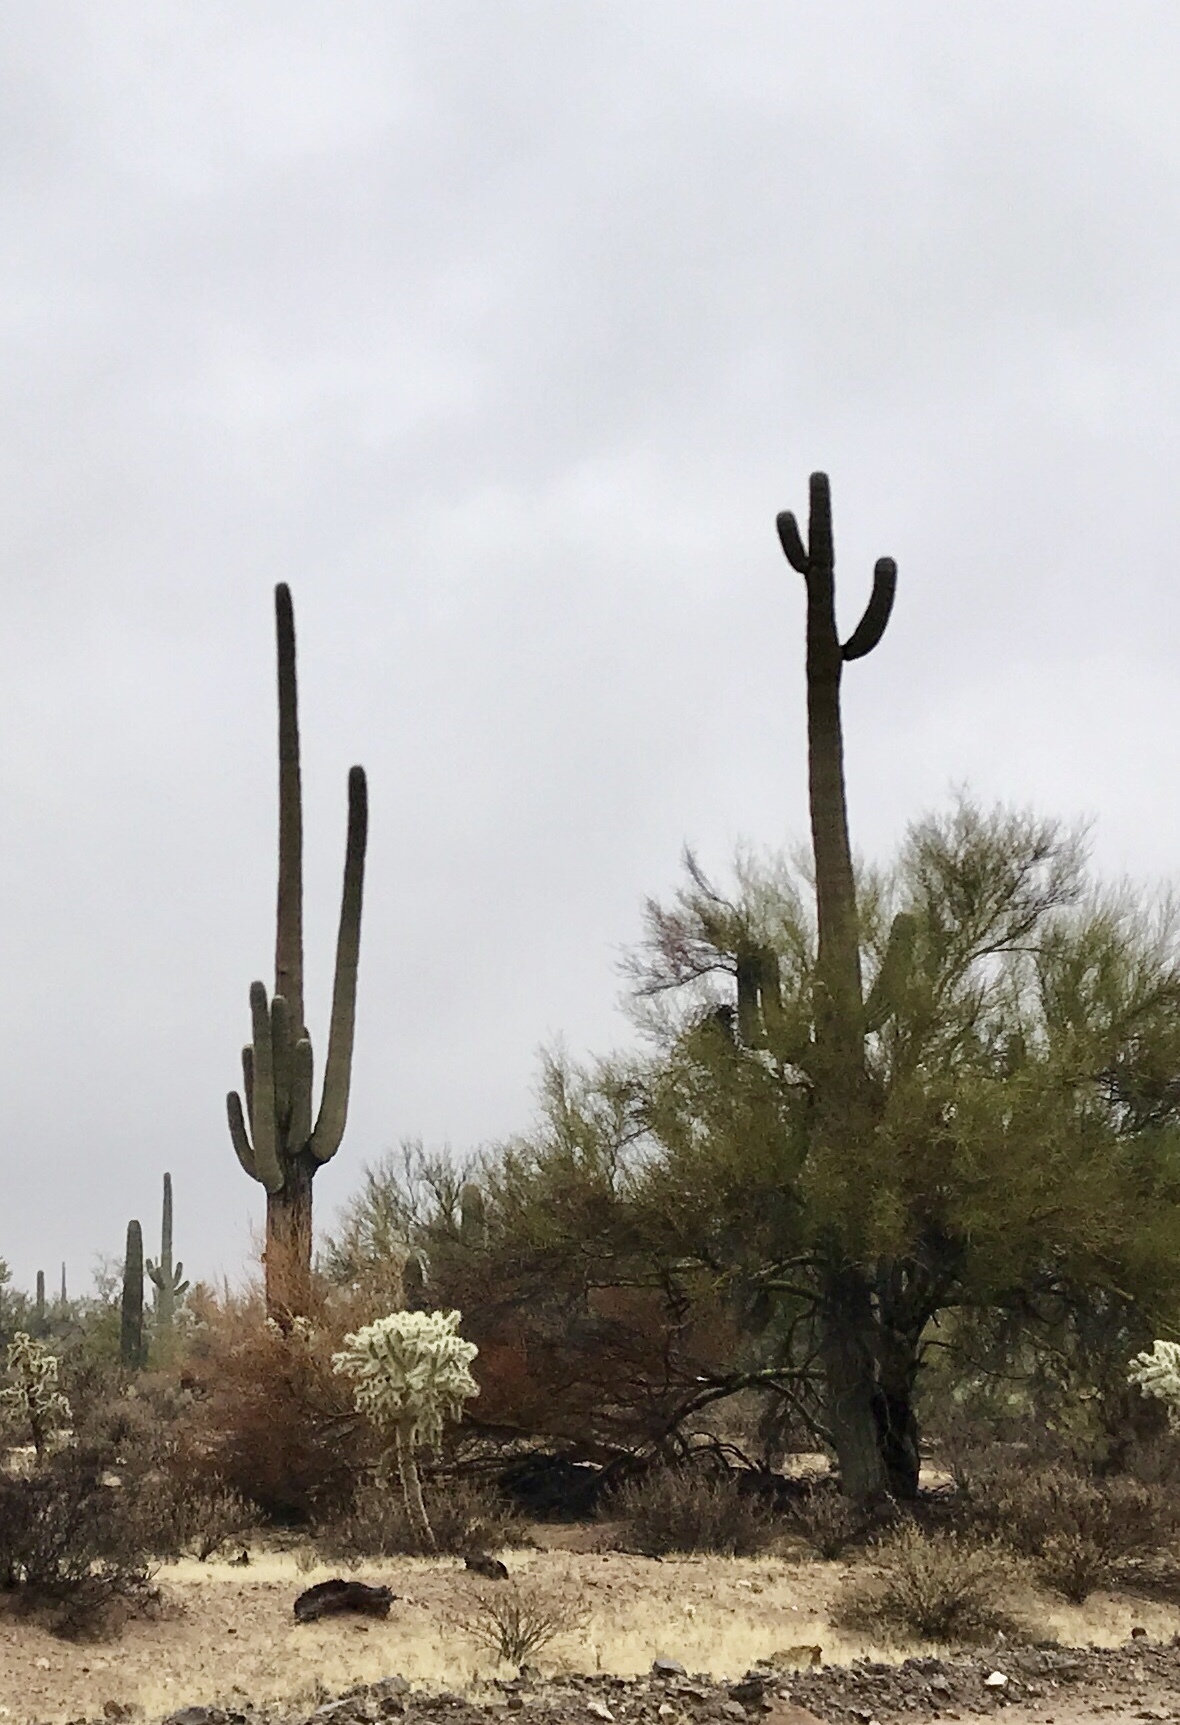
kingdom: Plantae
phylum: Tracheophyta
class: Magnoliopsida
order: Caryophyllales
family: Cactaceae
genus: Carnegiea
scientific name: Carnegiea gigantea
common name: Saguaro
